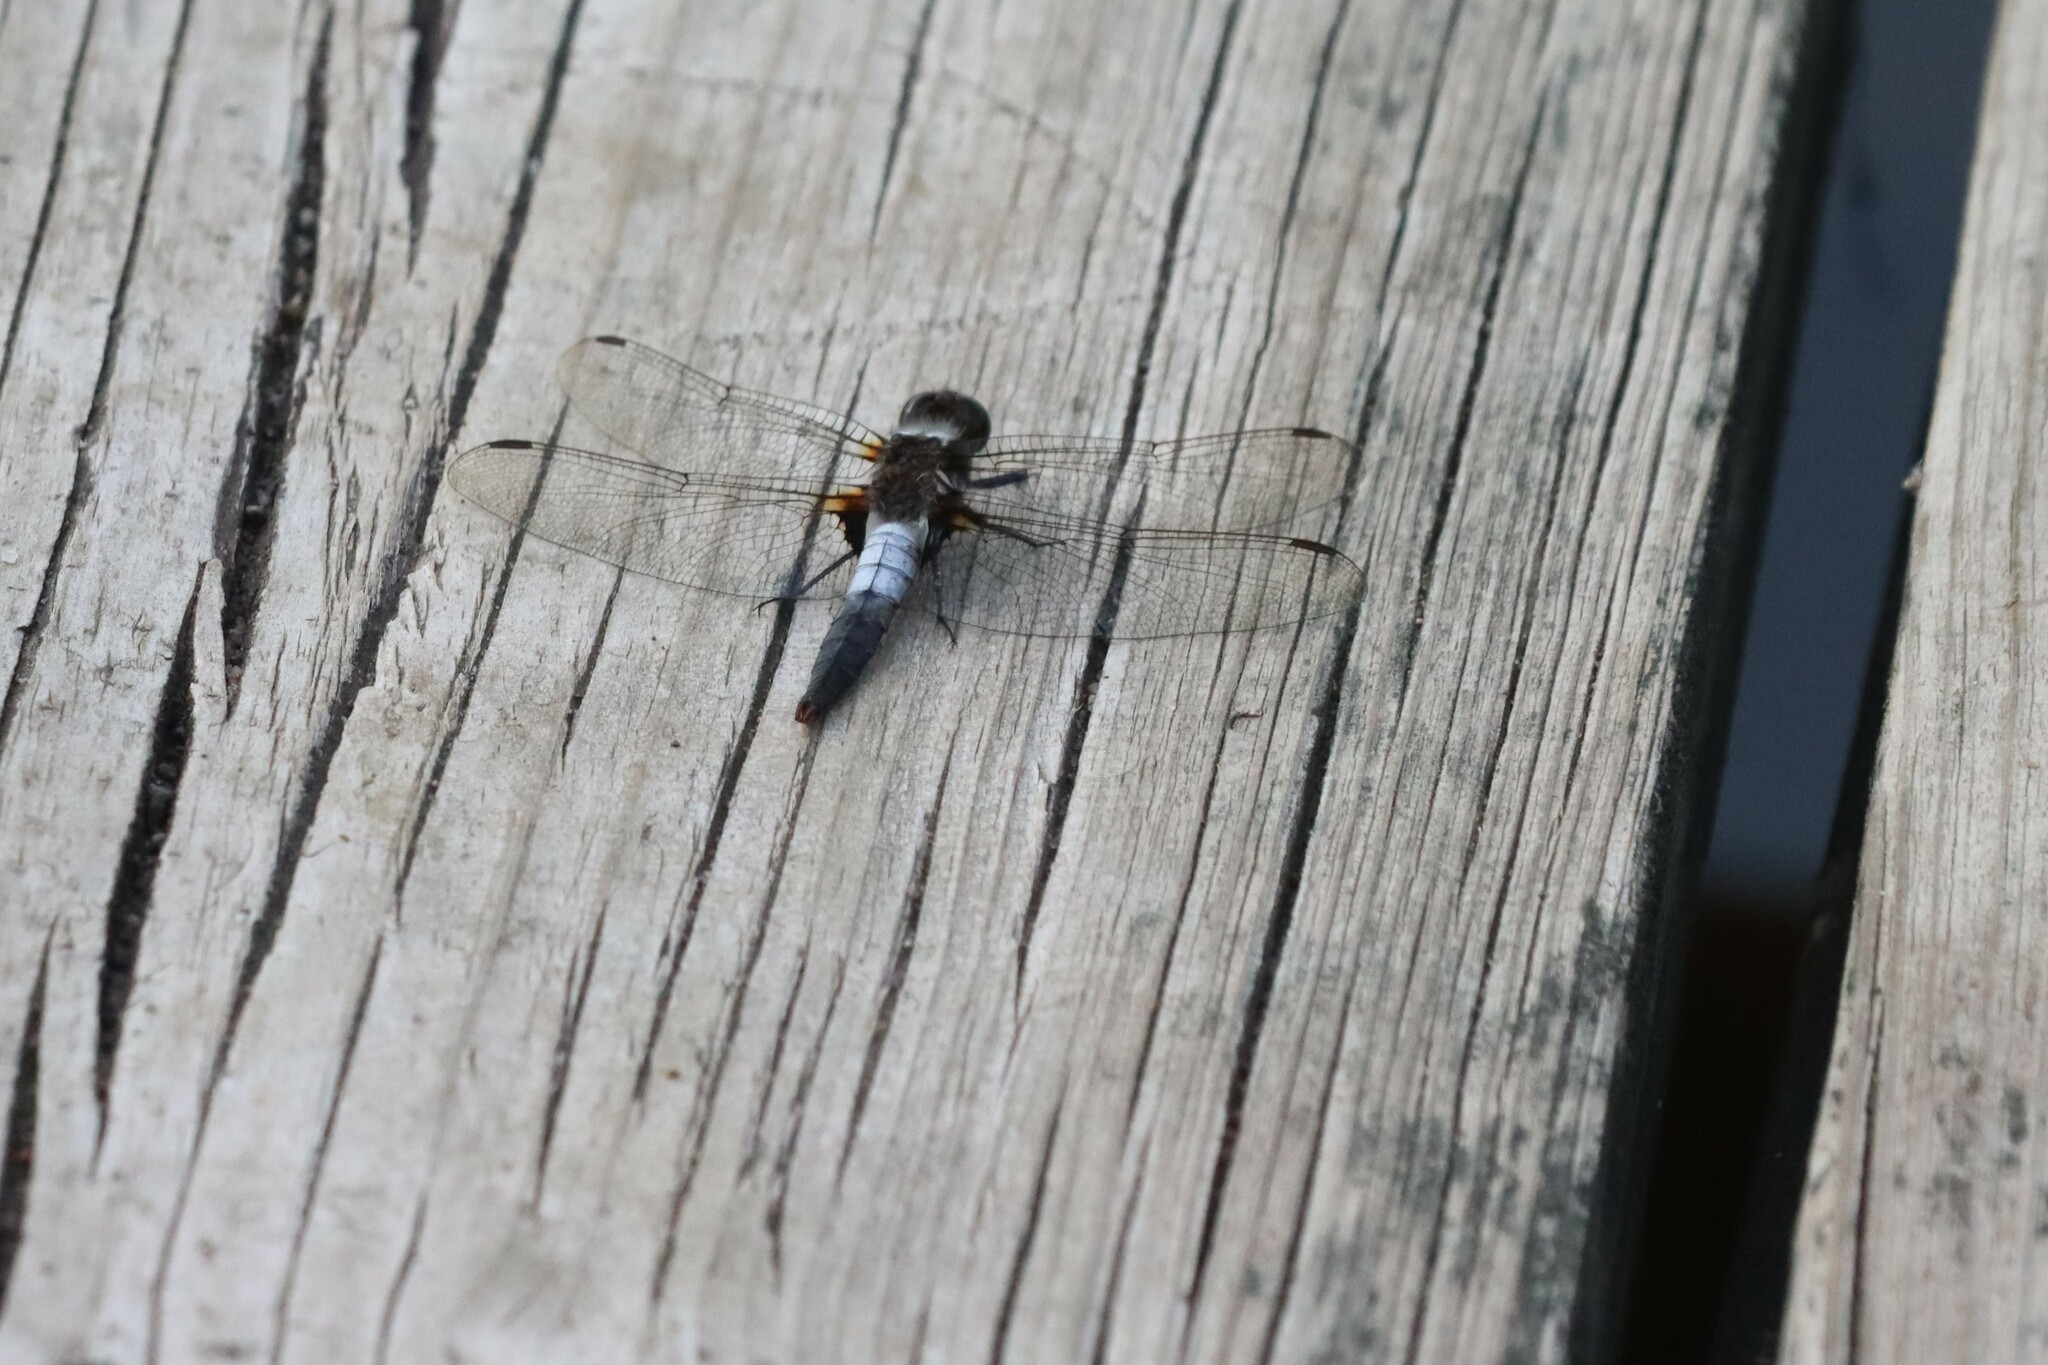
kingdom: Animalia
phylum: Arthropoda
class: Insecta
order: Odonata
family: Libellulidae
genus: Ladona
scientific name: Ladona julia
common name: Chalk-fronted corporal
